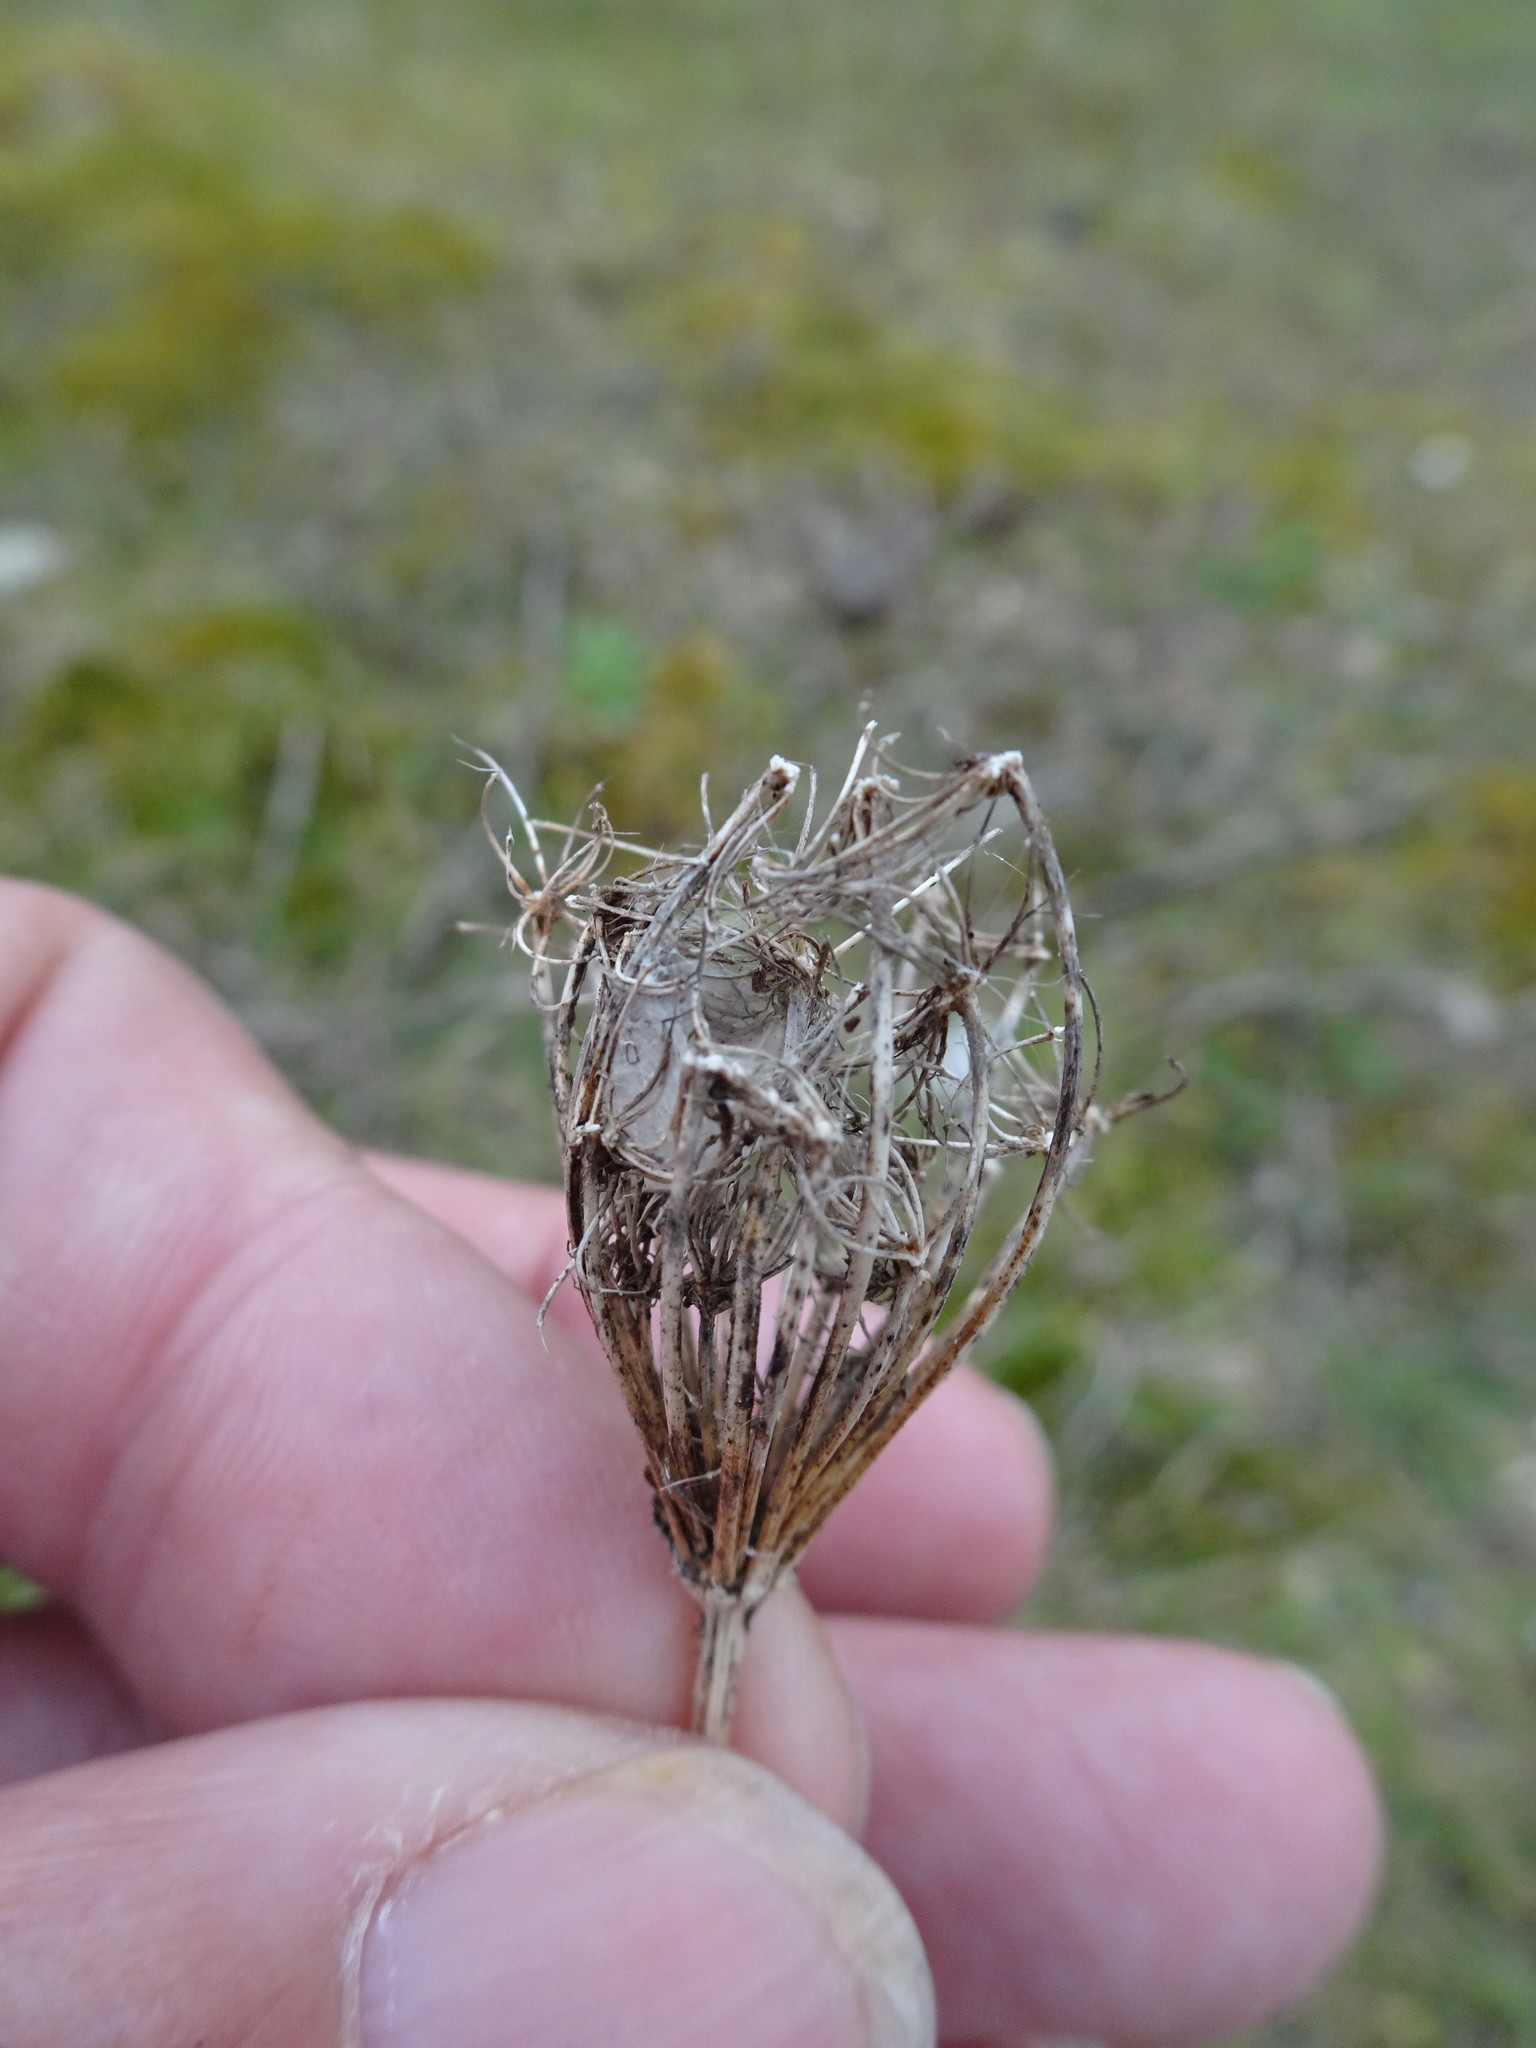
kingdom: Plantae
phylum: Tracheophyta
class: Magnoliopsida
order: Apiales
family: Apiaceae
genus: Daucus
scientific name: Daucus carota
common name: Wild carrot
